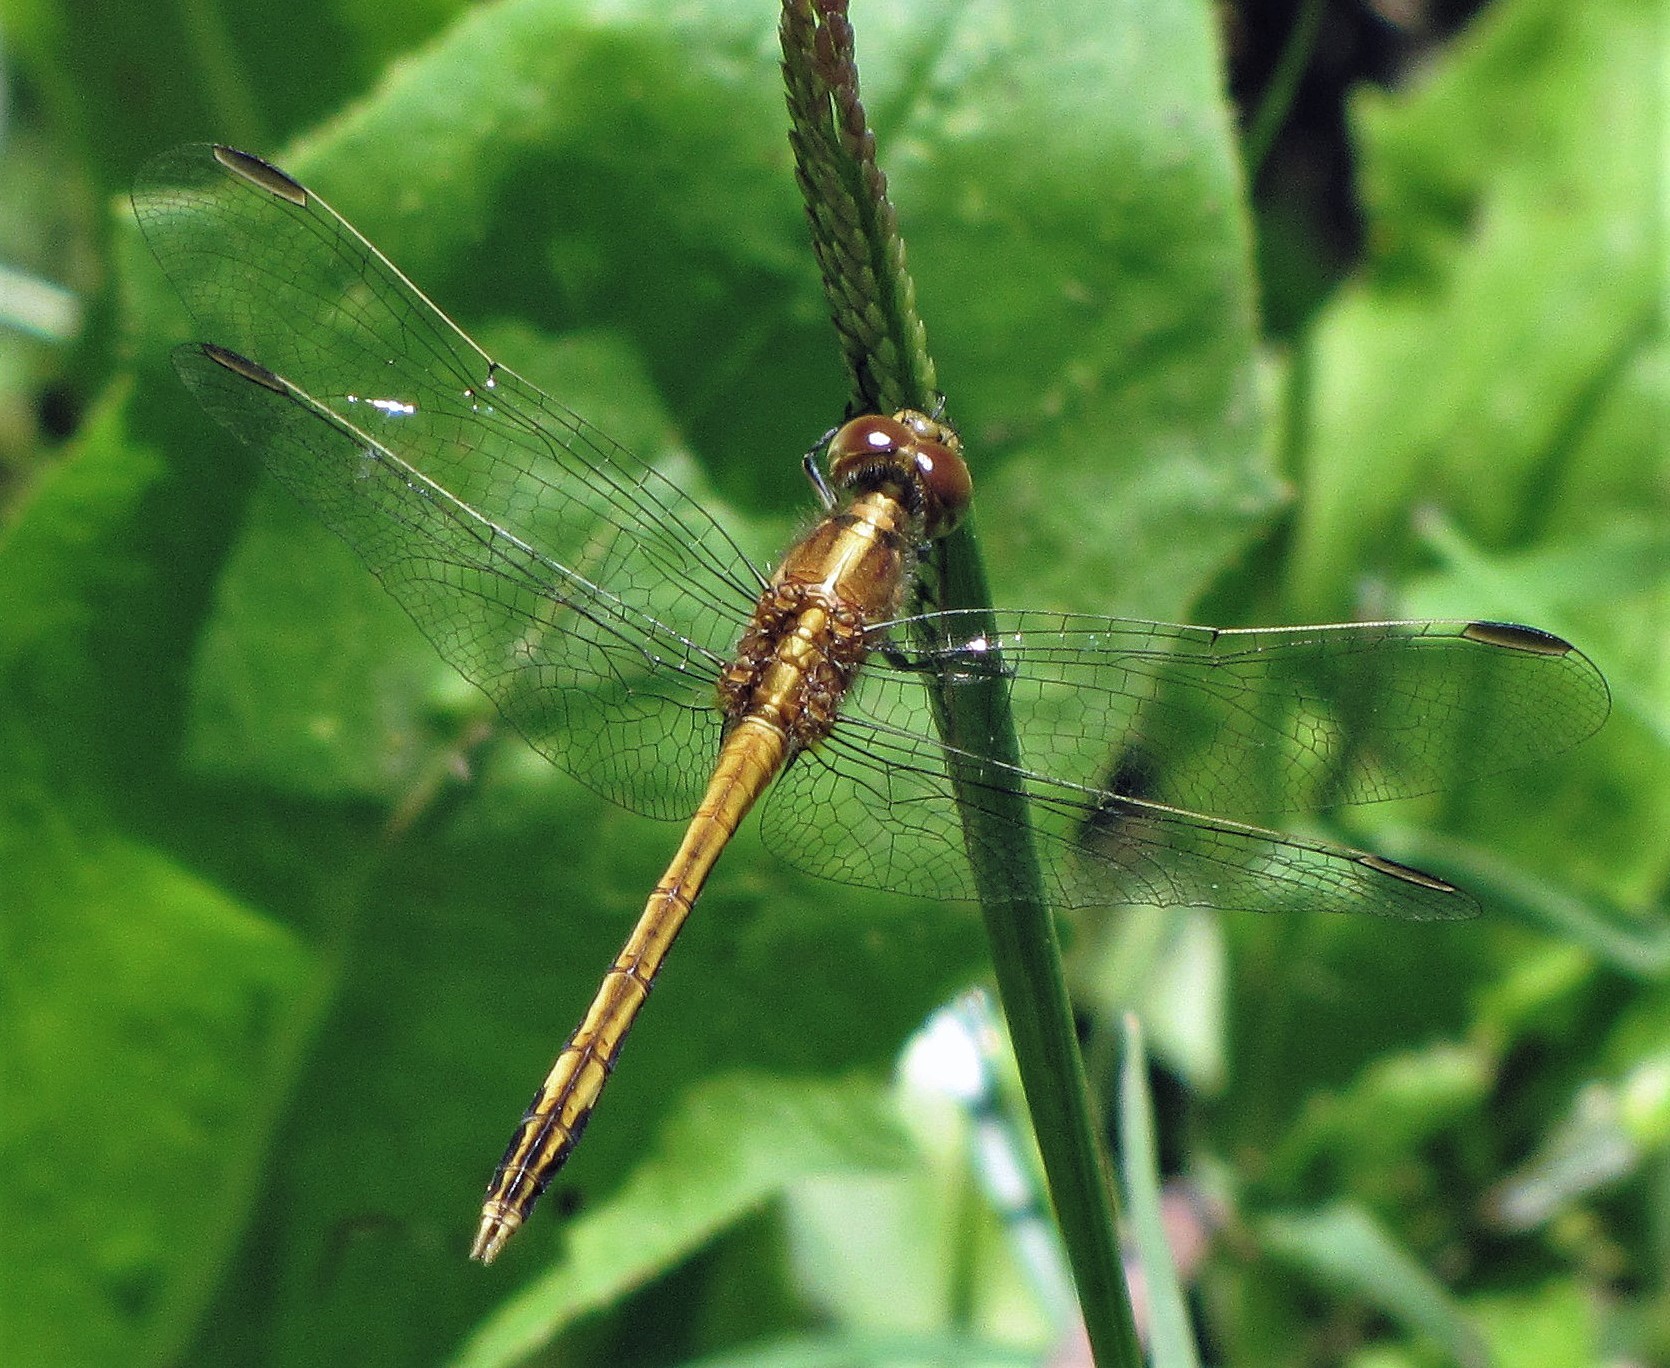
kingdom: Animalia
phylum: Arthropoda
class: Insecta
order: Odonata
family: Libellulidae
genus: Erythrodiplax
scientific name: Erythrodiplax nigricans
